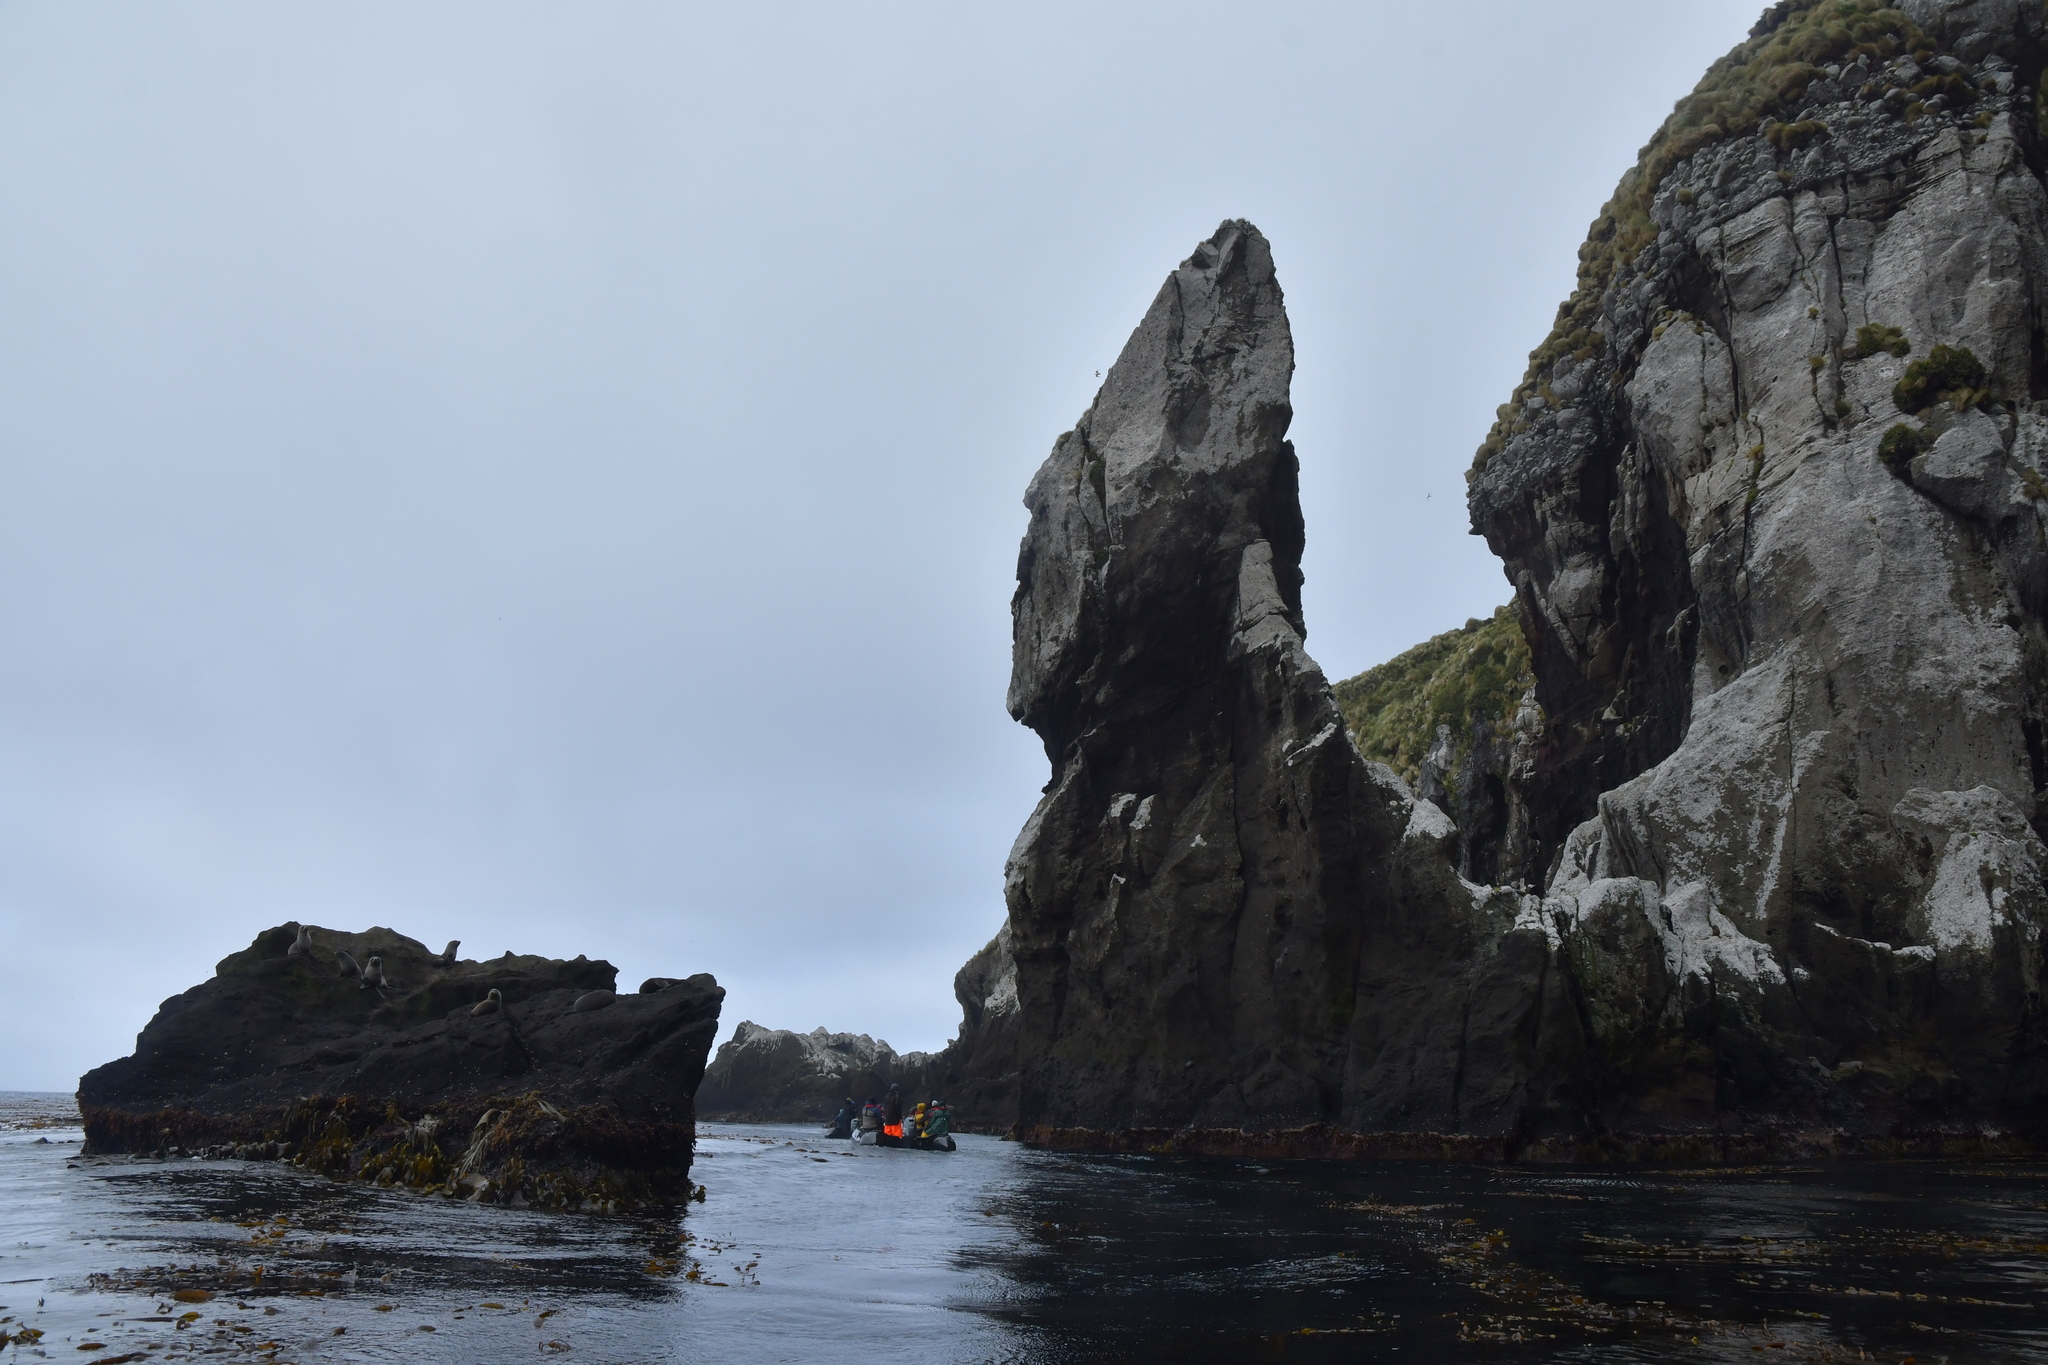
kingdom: Animalia
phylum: Chordata
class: Mammalia
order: Carnivora
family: Otariidae
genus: Arctocephalus
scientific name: Arctocephalus forsteri
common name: New zealand fur seal
